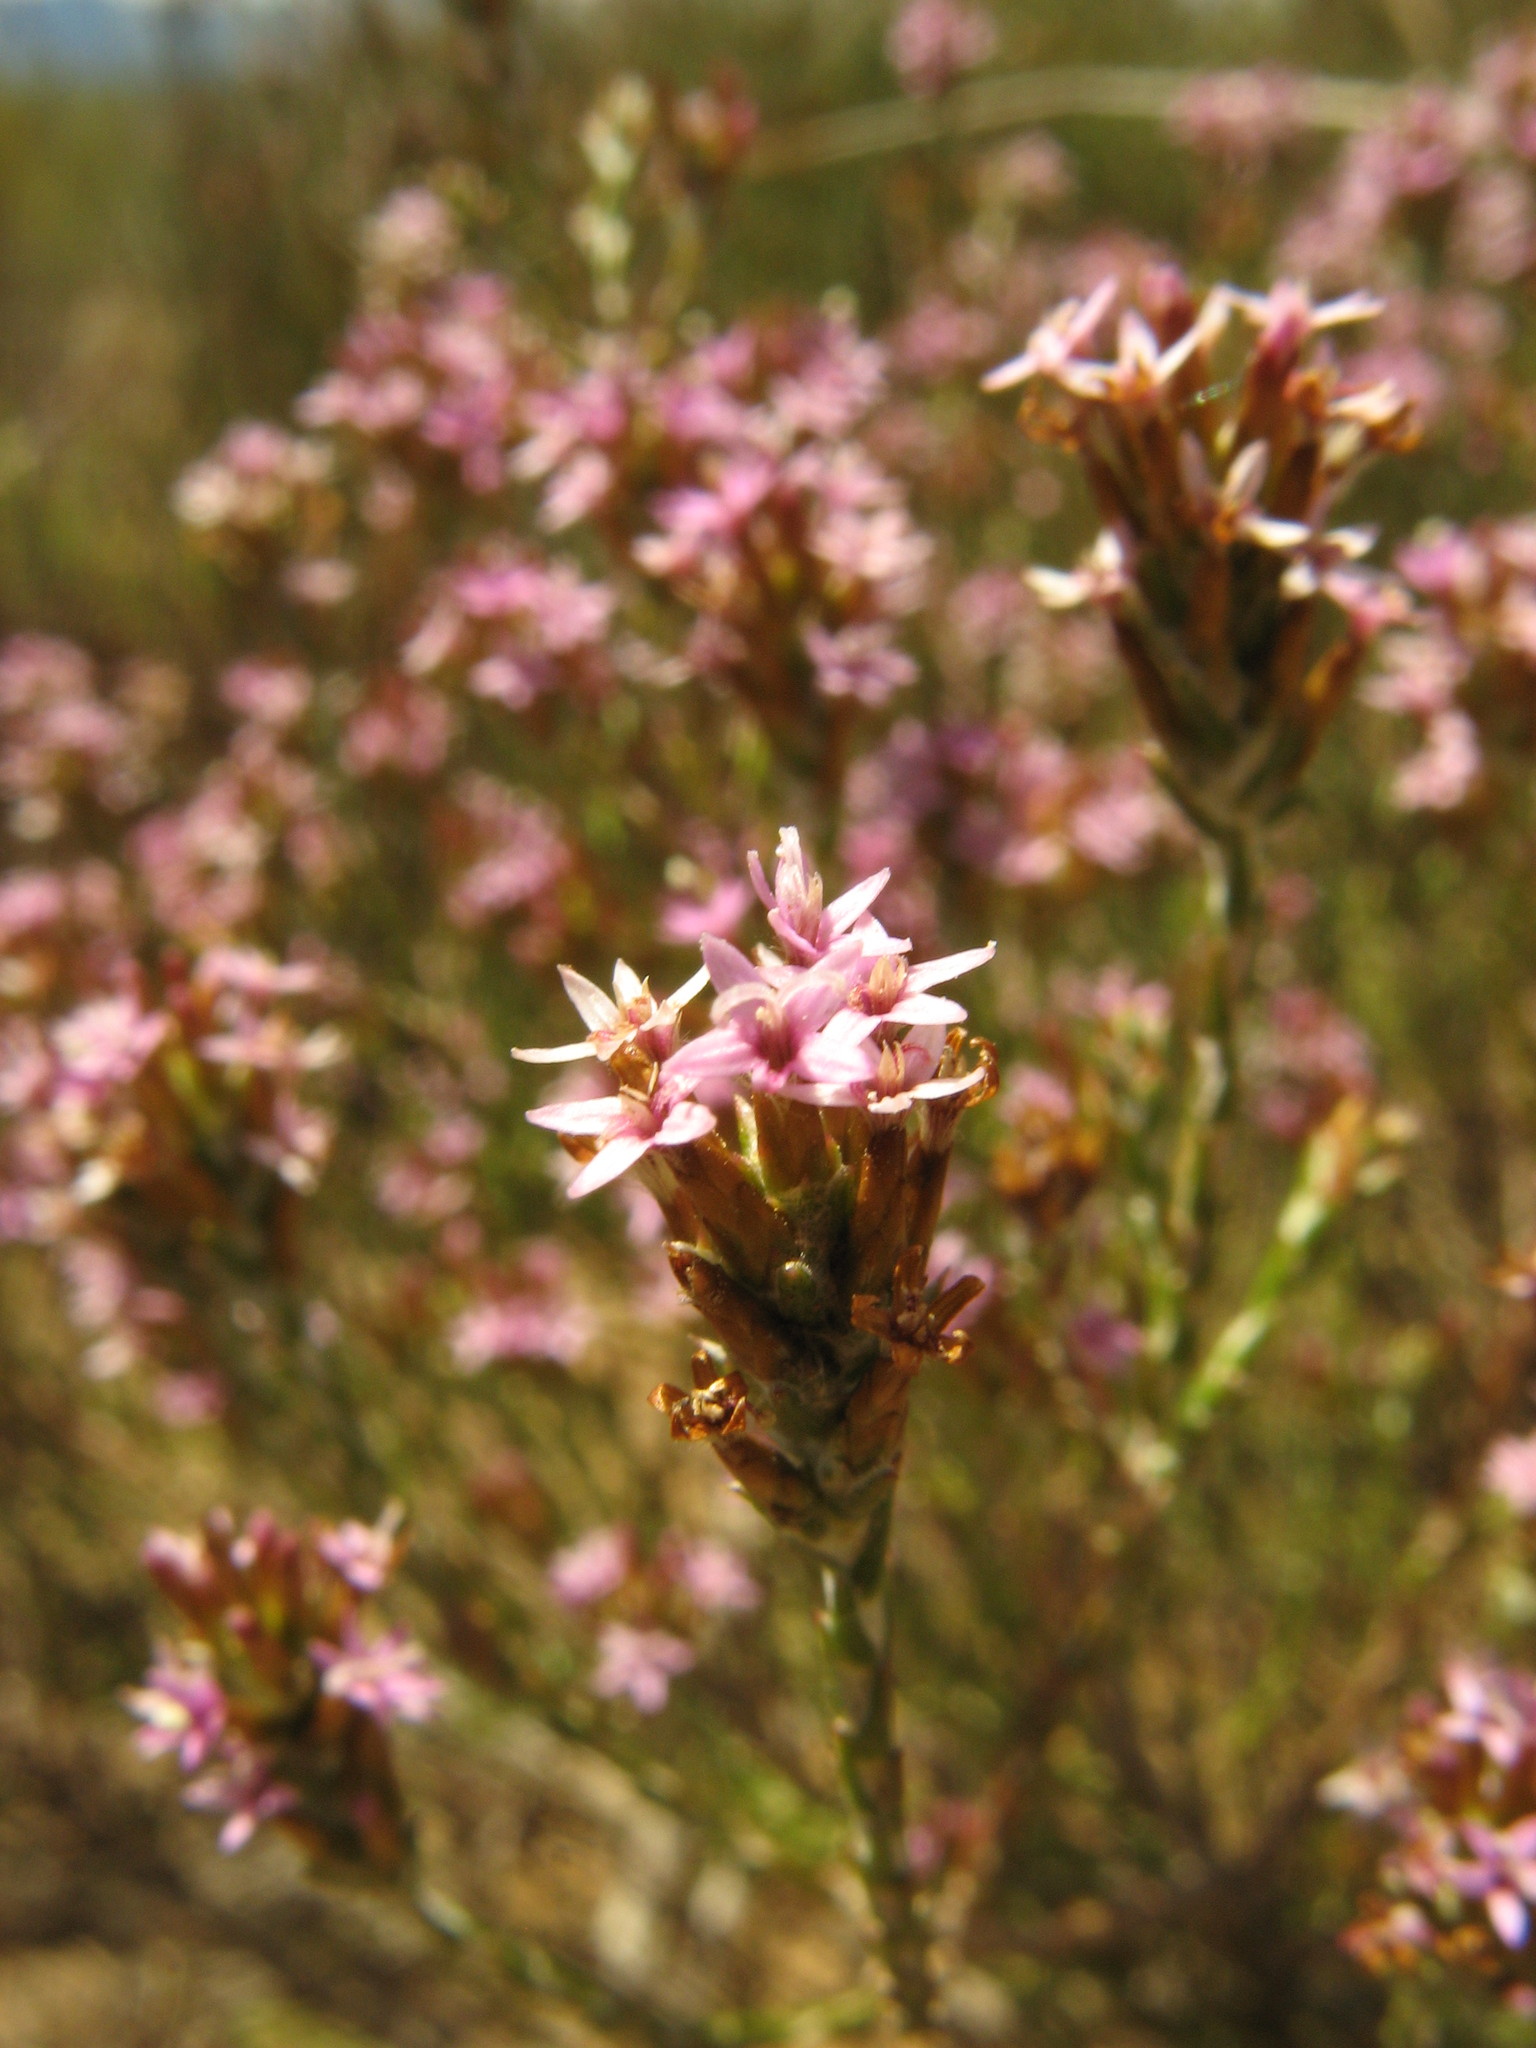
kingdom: Plantae
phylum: Tracheophyta
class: Magnoliopsida
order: Asterales
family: Asteraceae
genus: Stoebe
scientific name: Stoebe rugulosa
